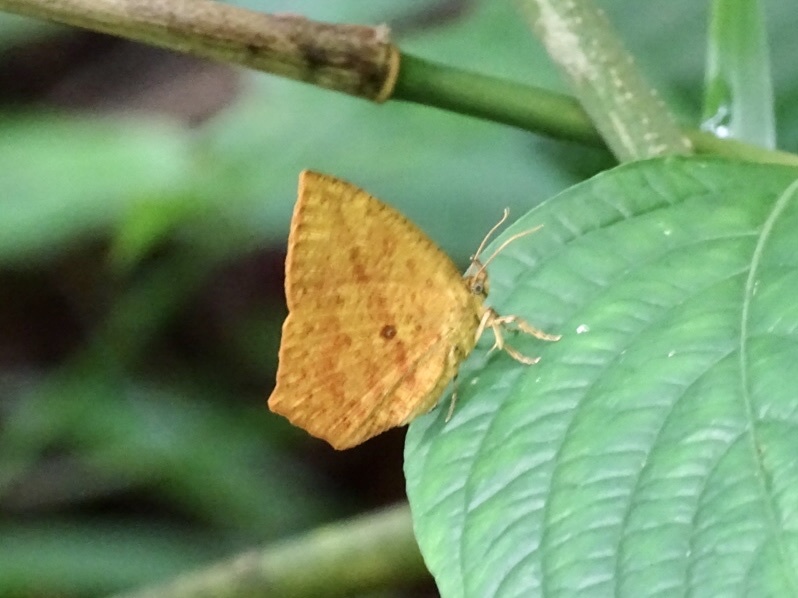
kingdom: Animalia
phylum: Arthropoda
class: Insecta
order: Lepidoptera
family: Callidulidae
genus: Tetragonus
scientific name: Tetragonus catamitus
